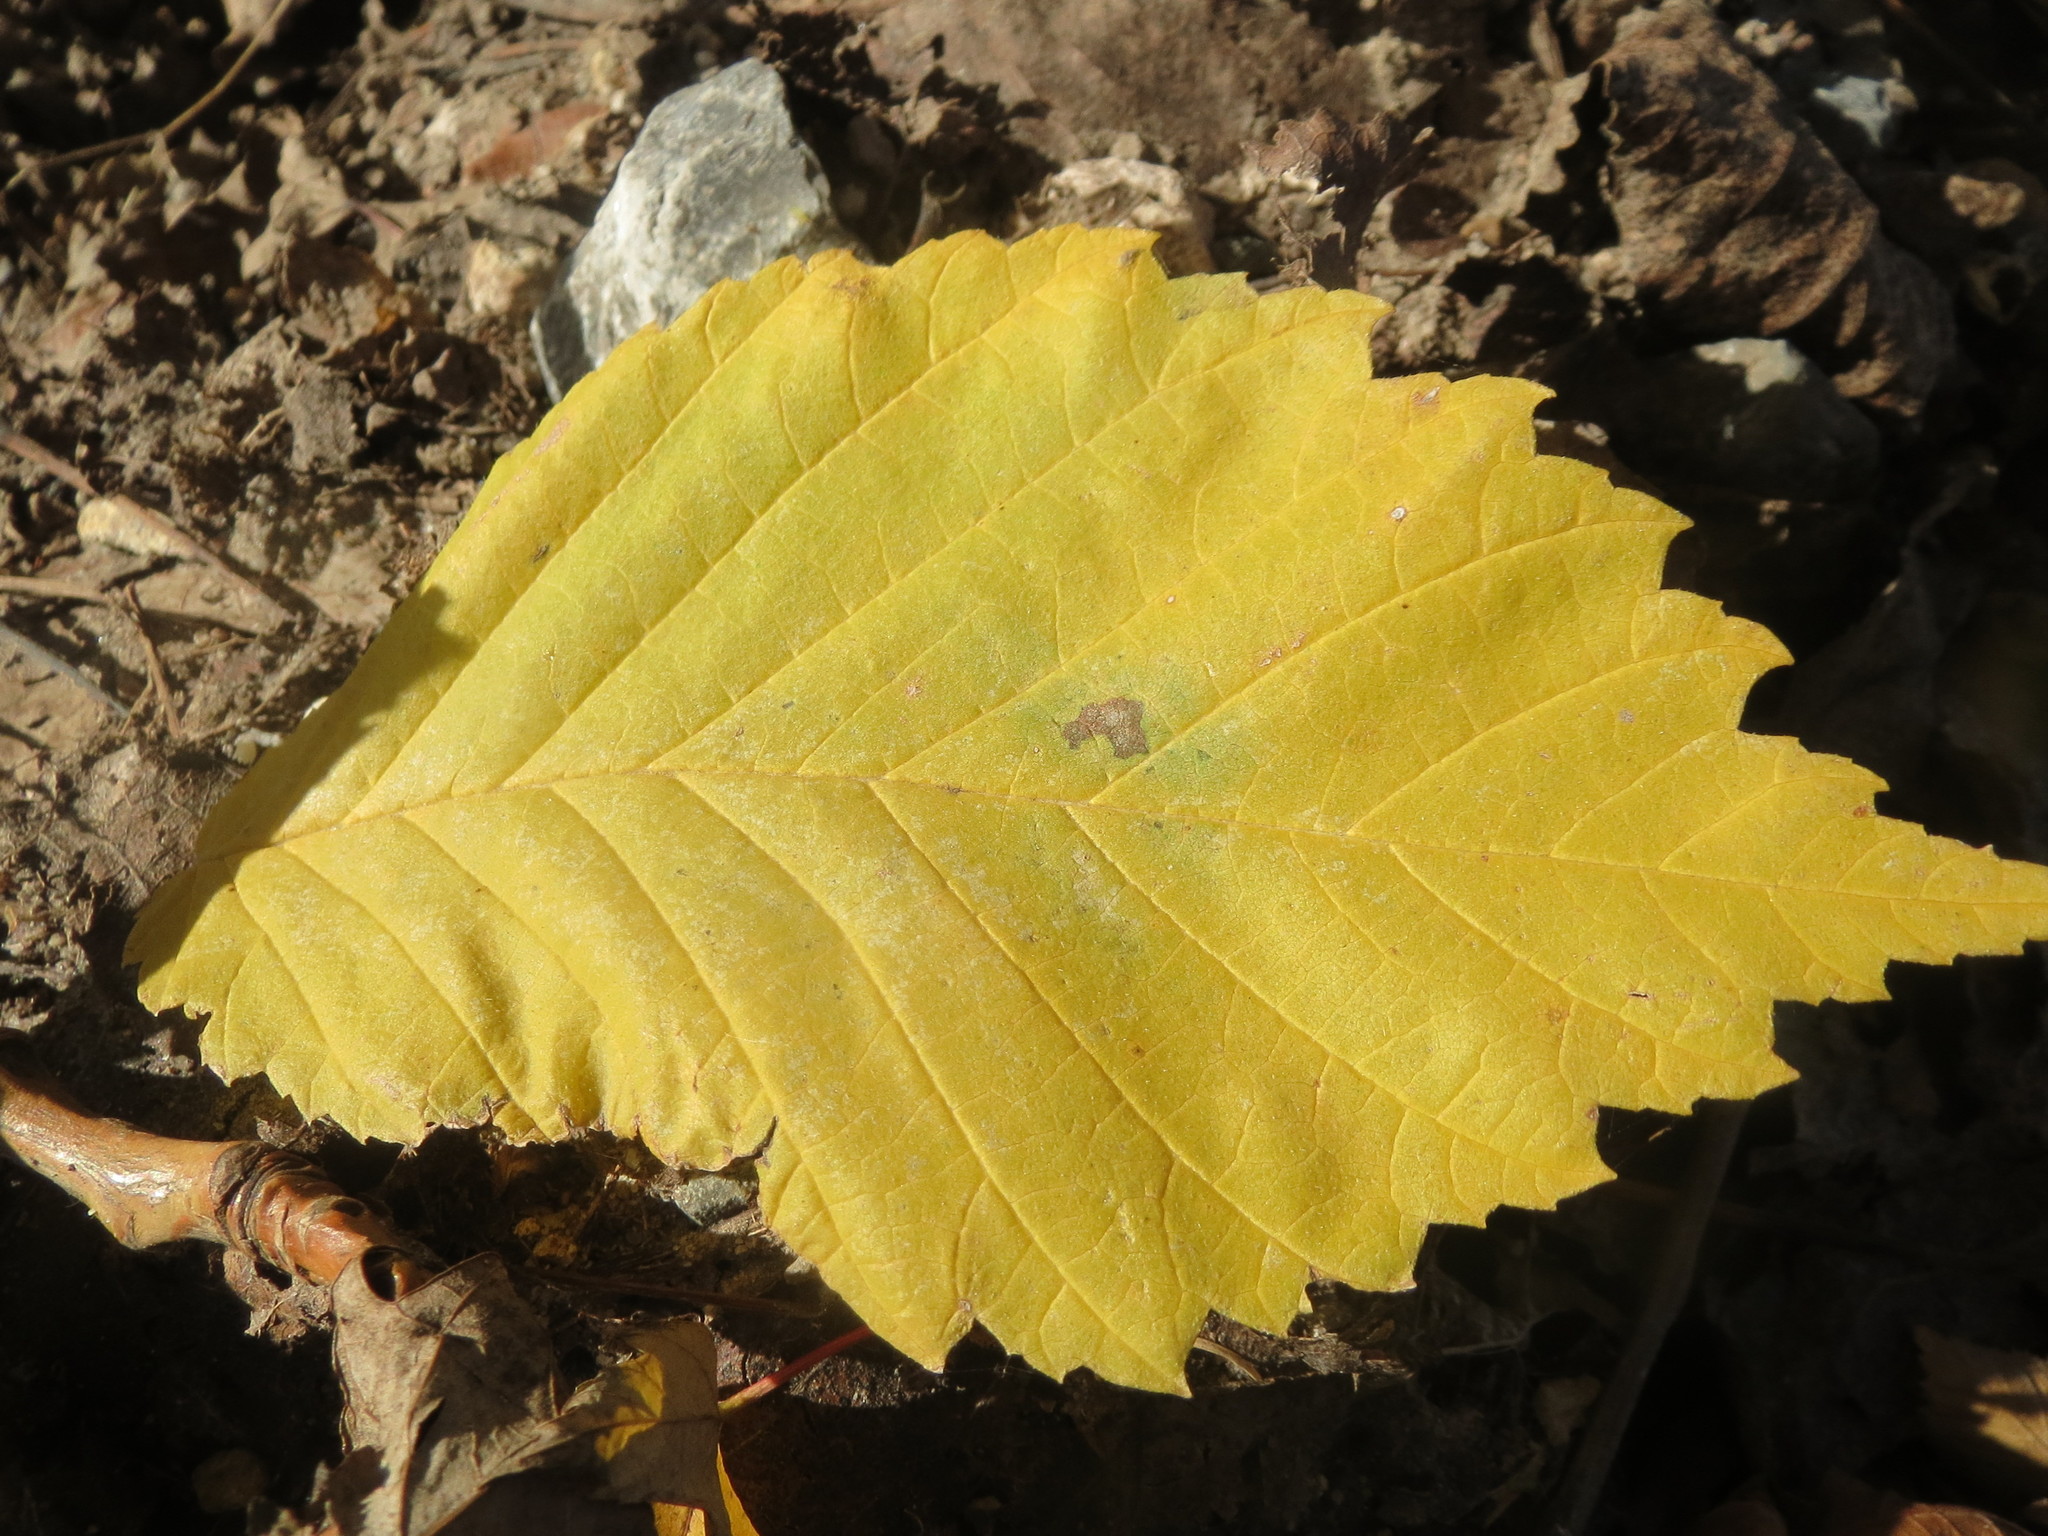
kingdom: Plantae
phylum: Tracheophyta
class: Magnoliopsida
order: Rosales
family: Ulmaceae
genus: Ulmus
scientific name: Ulmus glabra
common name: Wych elm
